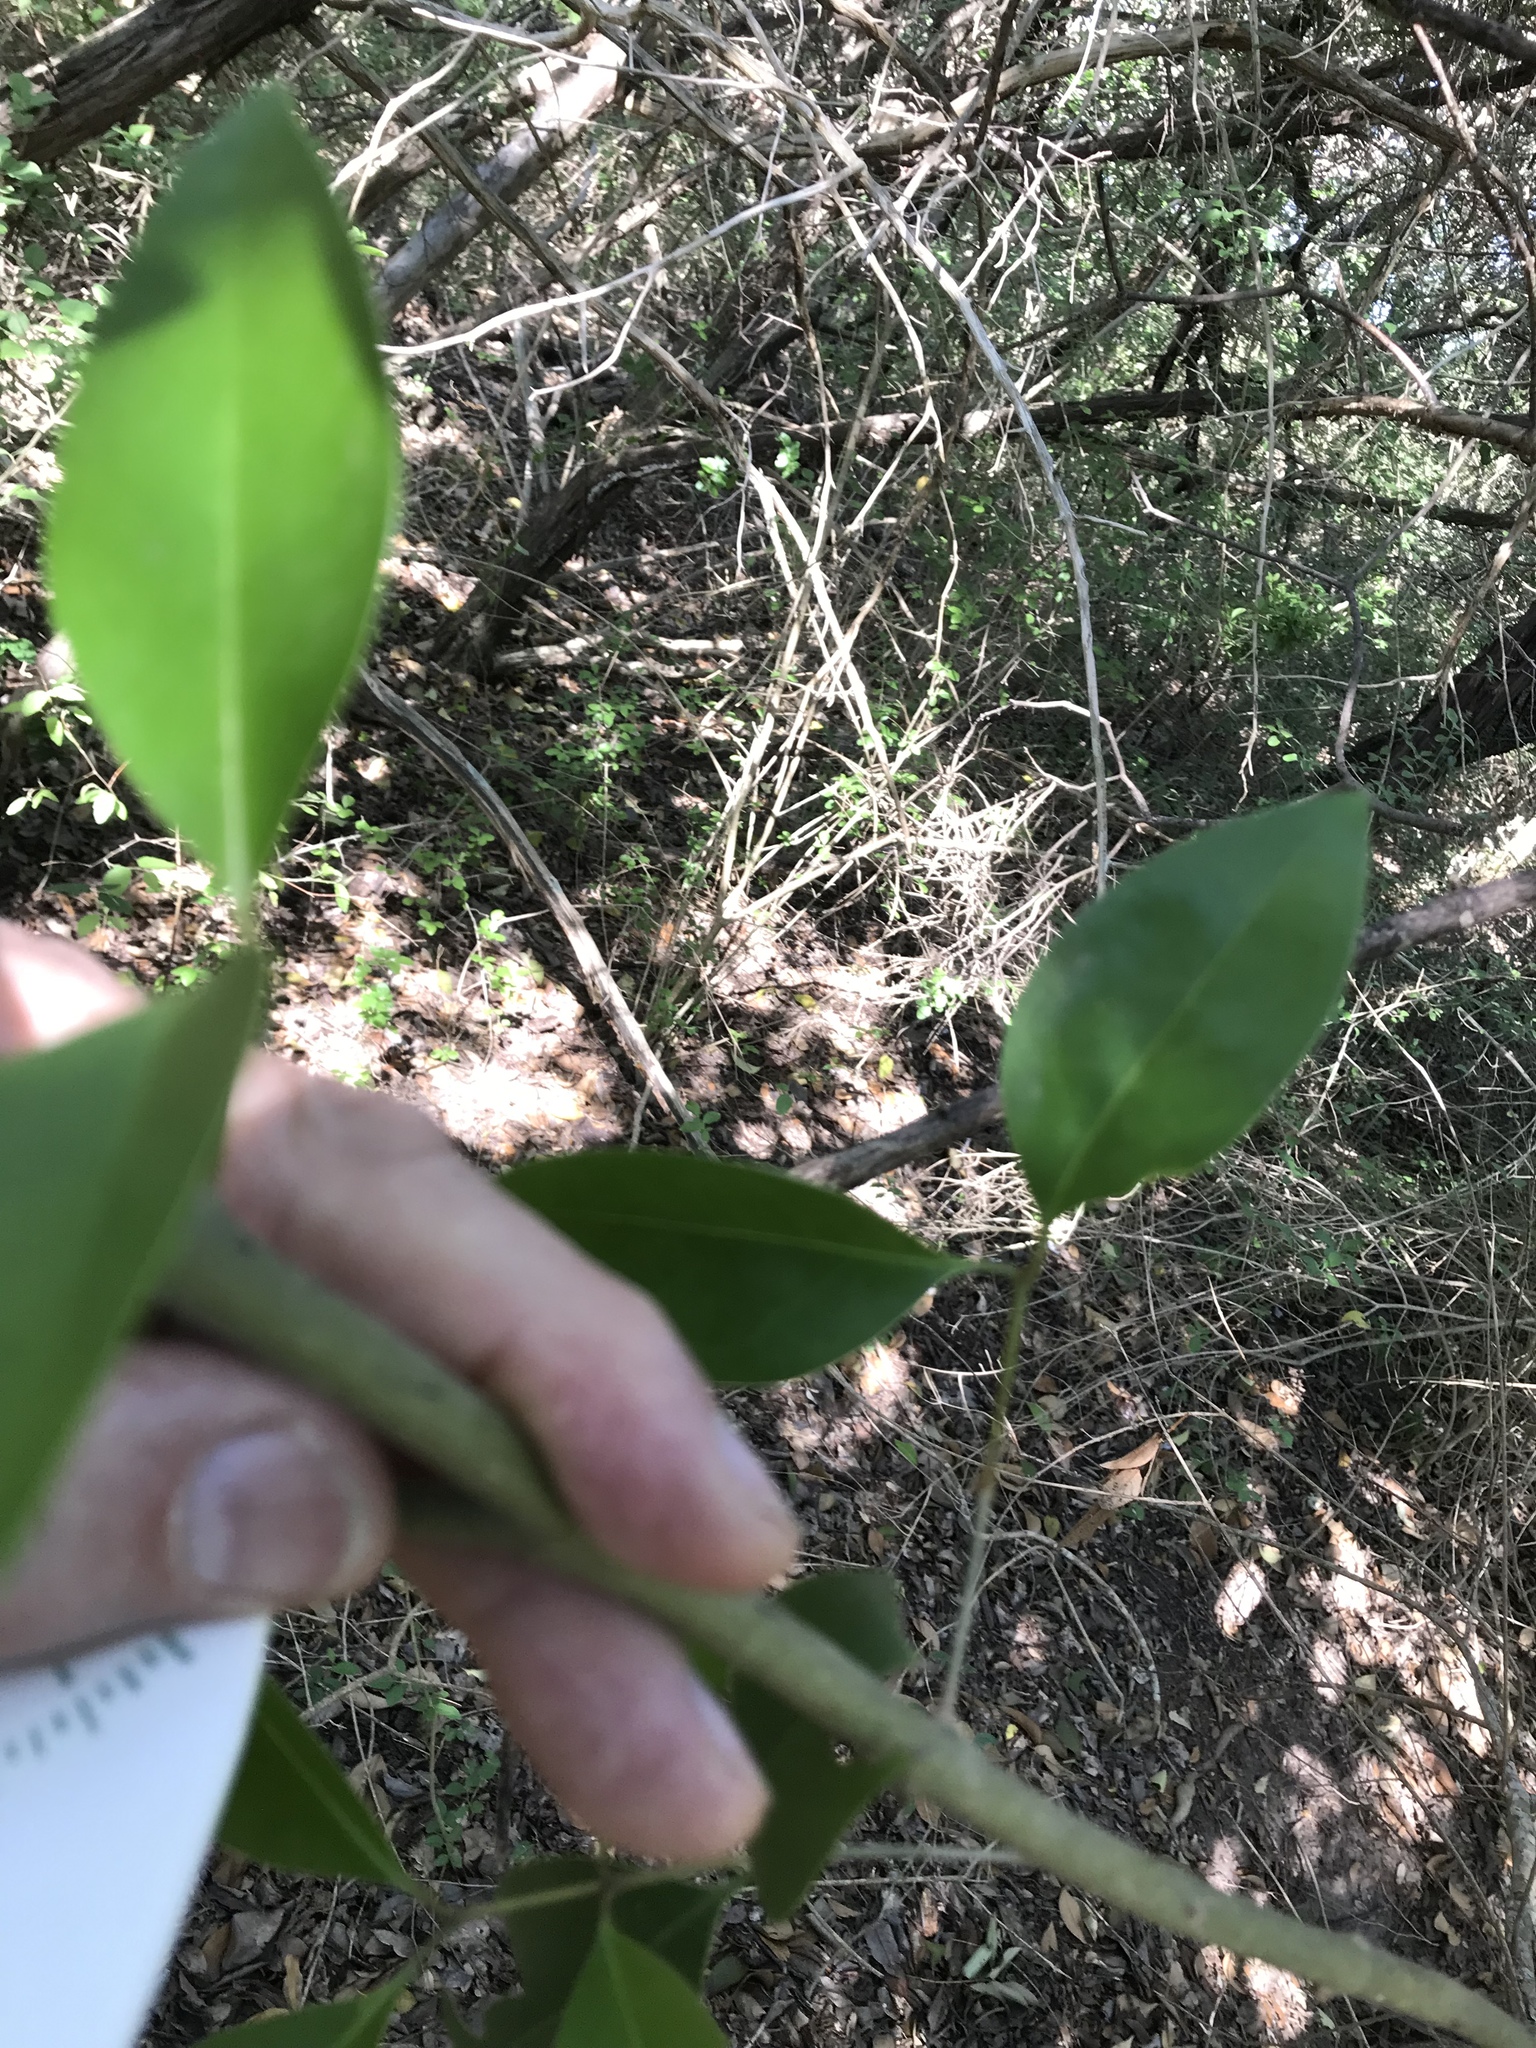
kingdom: Plantae
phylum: Tracheophyta
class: Magnoliopsida
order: Lamiales
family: Oleaceae
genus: Ligustrum
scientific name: Ligustrum lucidum
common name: Glossy privet
